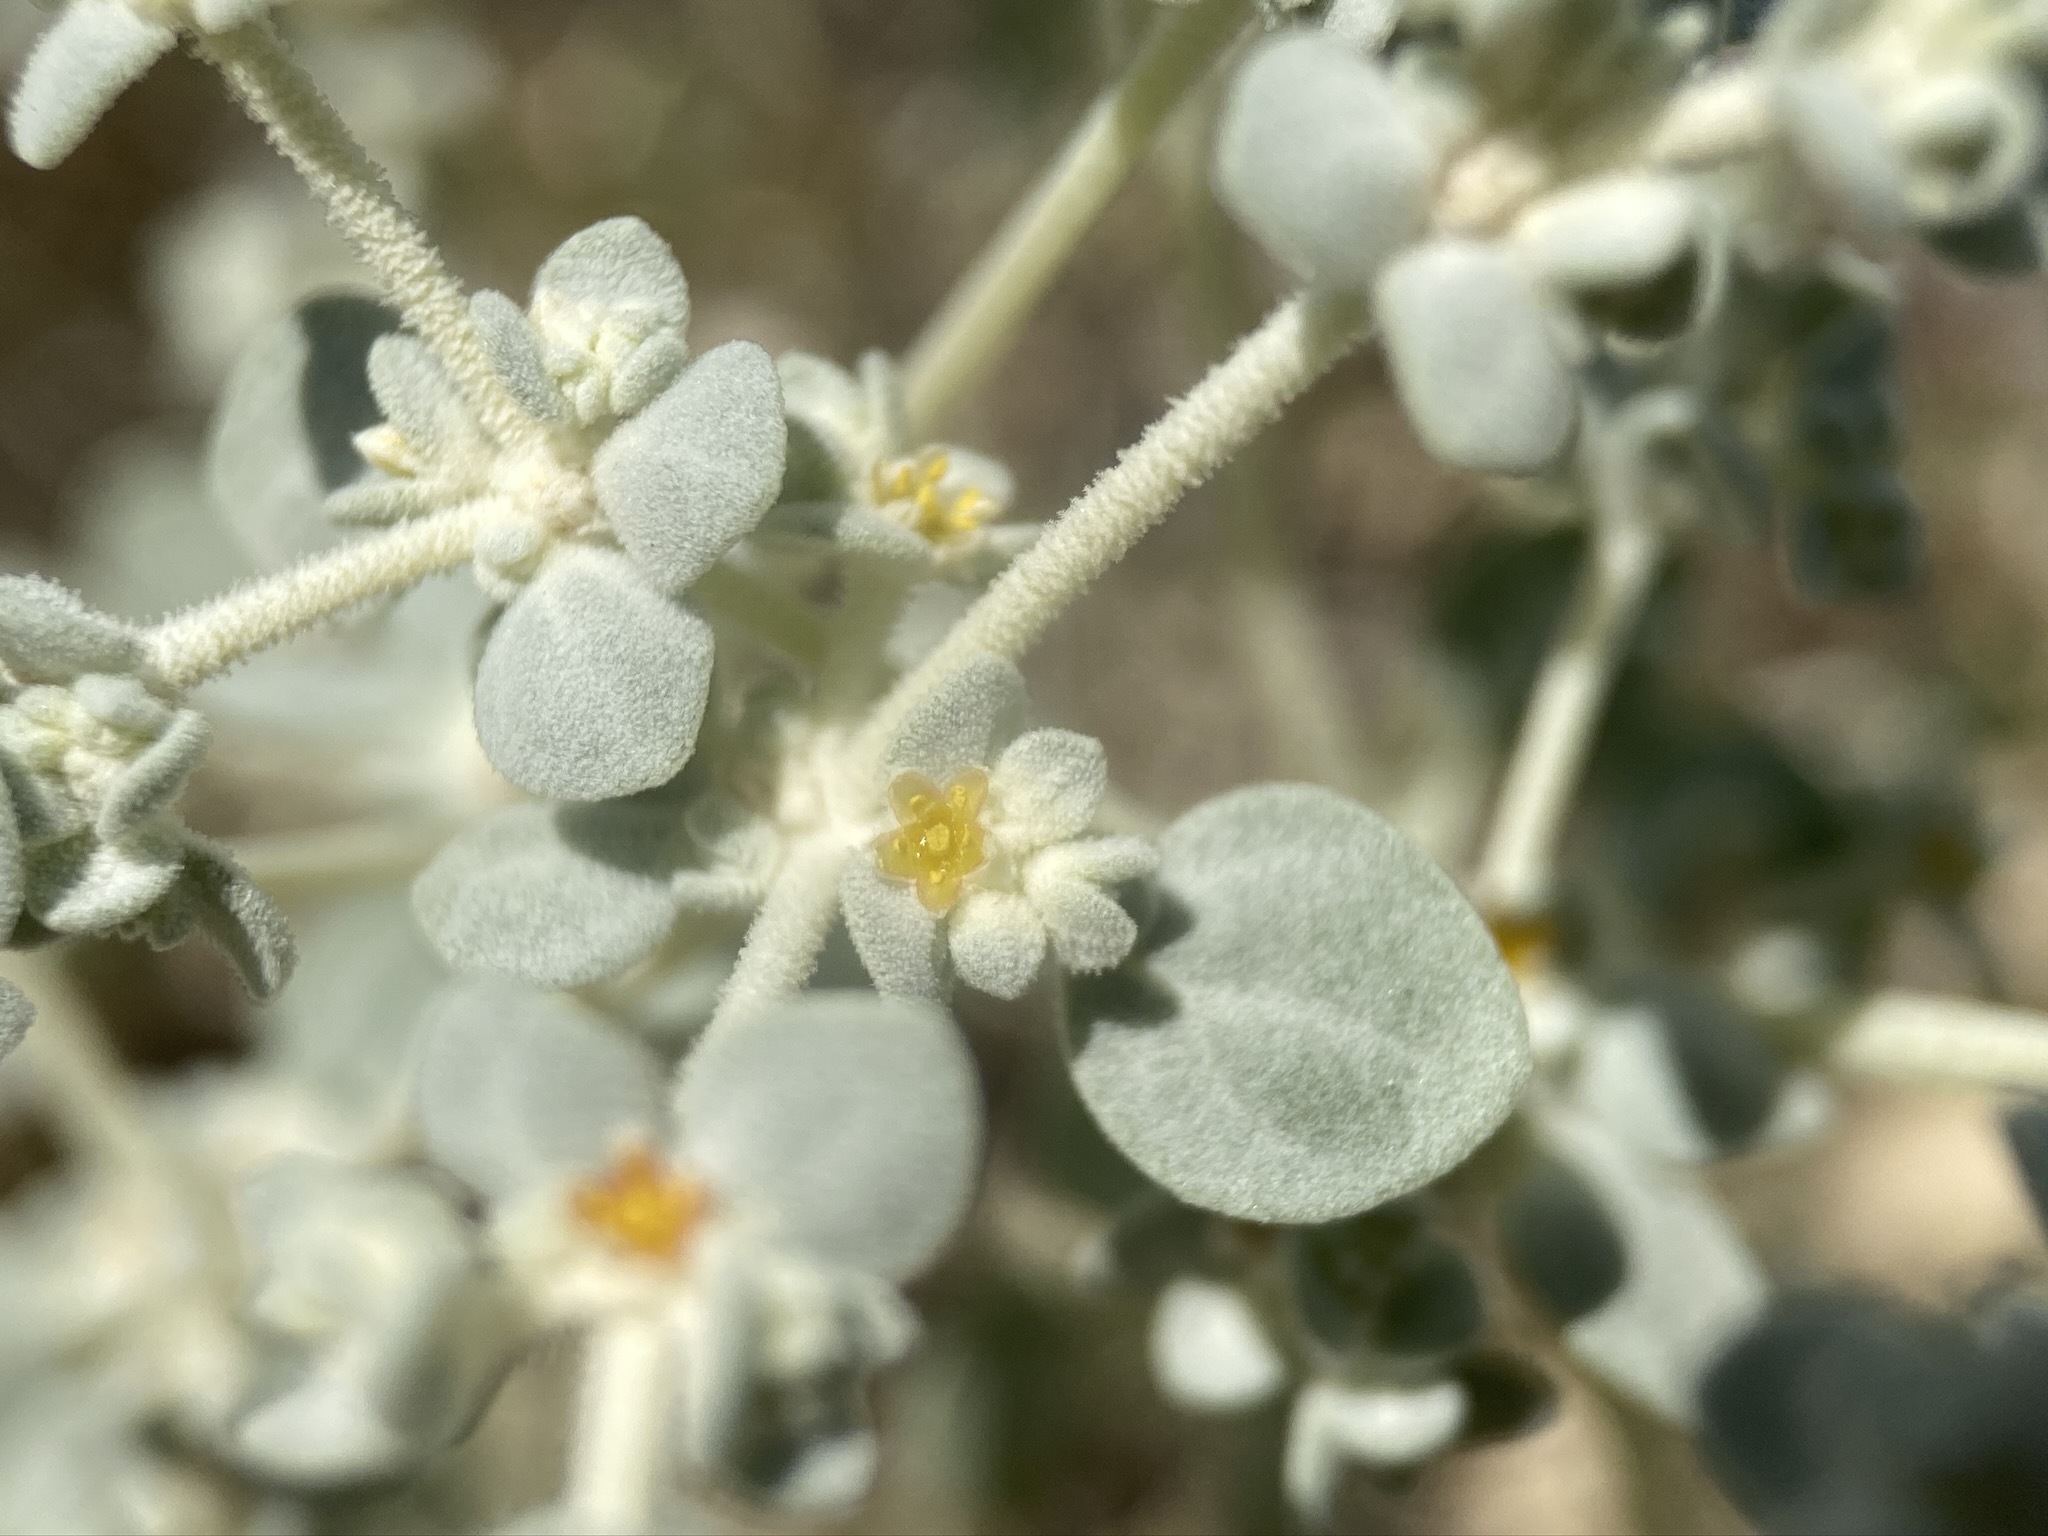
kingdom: Plantae
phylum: Tracheophyta
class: Magnoliopsida
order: Caryophyllales
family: Amaranthaceae
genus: Tidestromia
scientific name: Tidestromia suffruticosa
